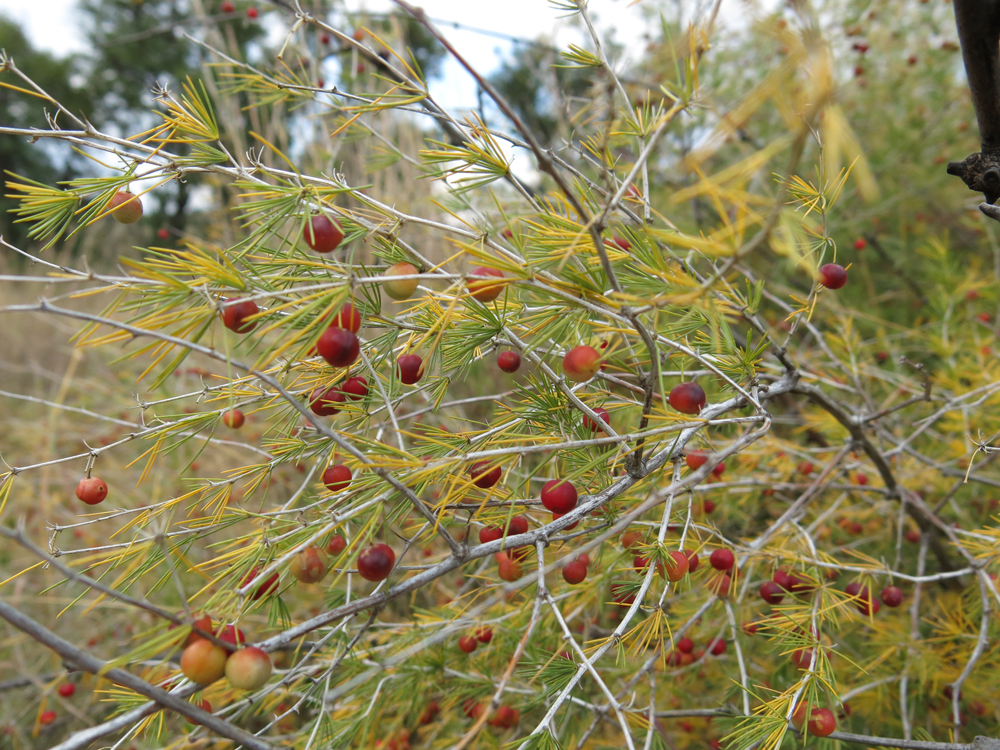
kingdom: Plantae
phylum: Tracheophyta
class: Liliopsida
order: Asparagales
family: Asparagaceae
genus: Asparagus
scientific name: Asparagus laricinus
